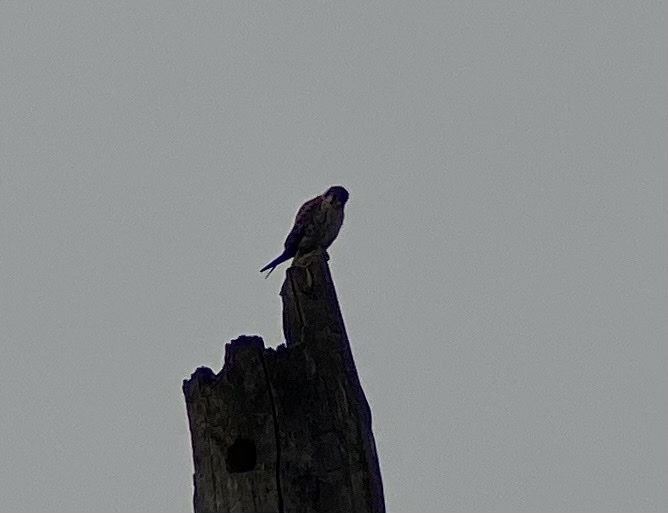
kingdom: Animalia
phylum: Chordata
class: Aves
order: Falconiformes
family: Falconidae
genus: Falco
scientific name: Falco sparverius
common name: American kestrel
